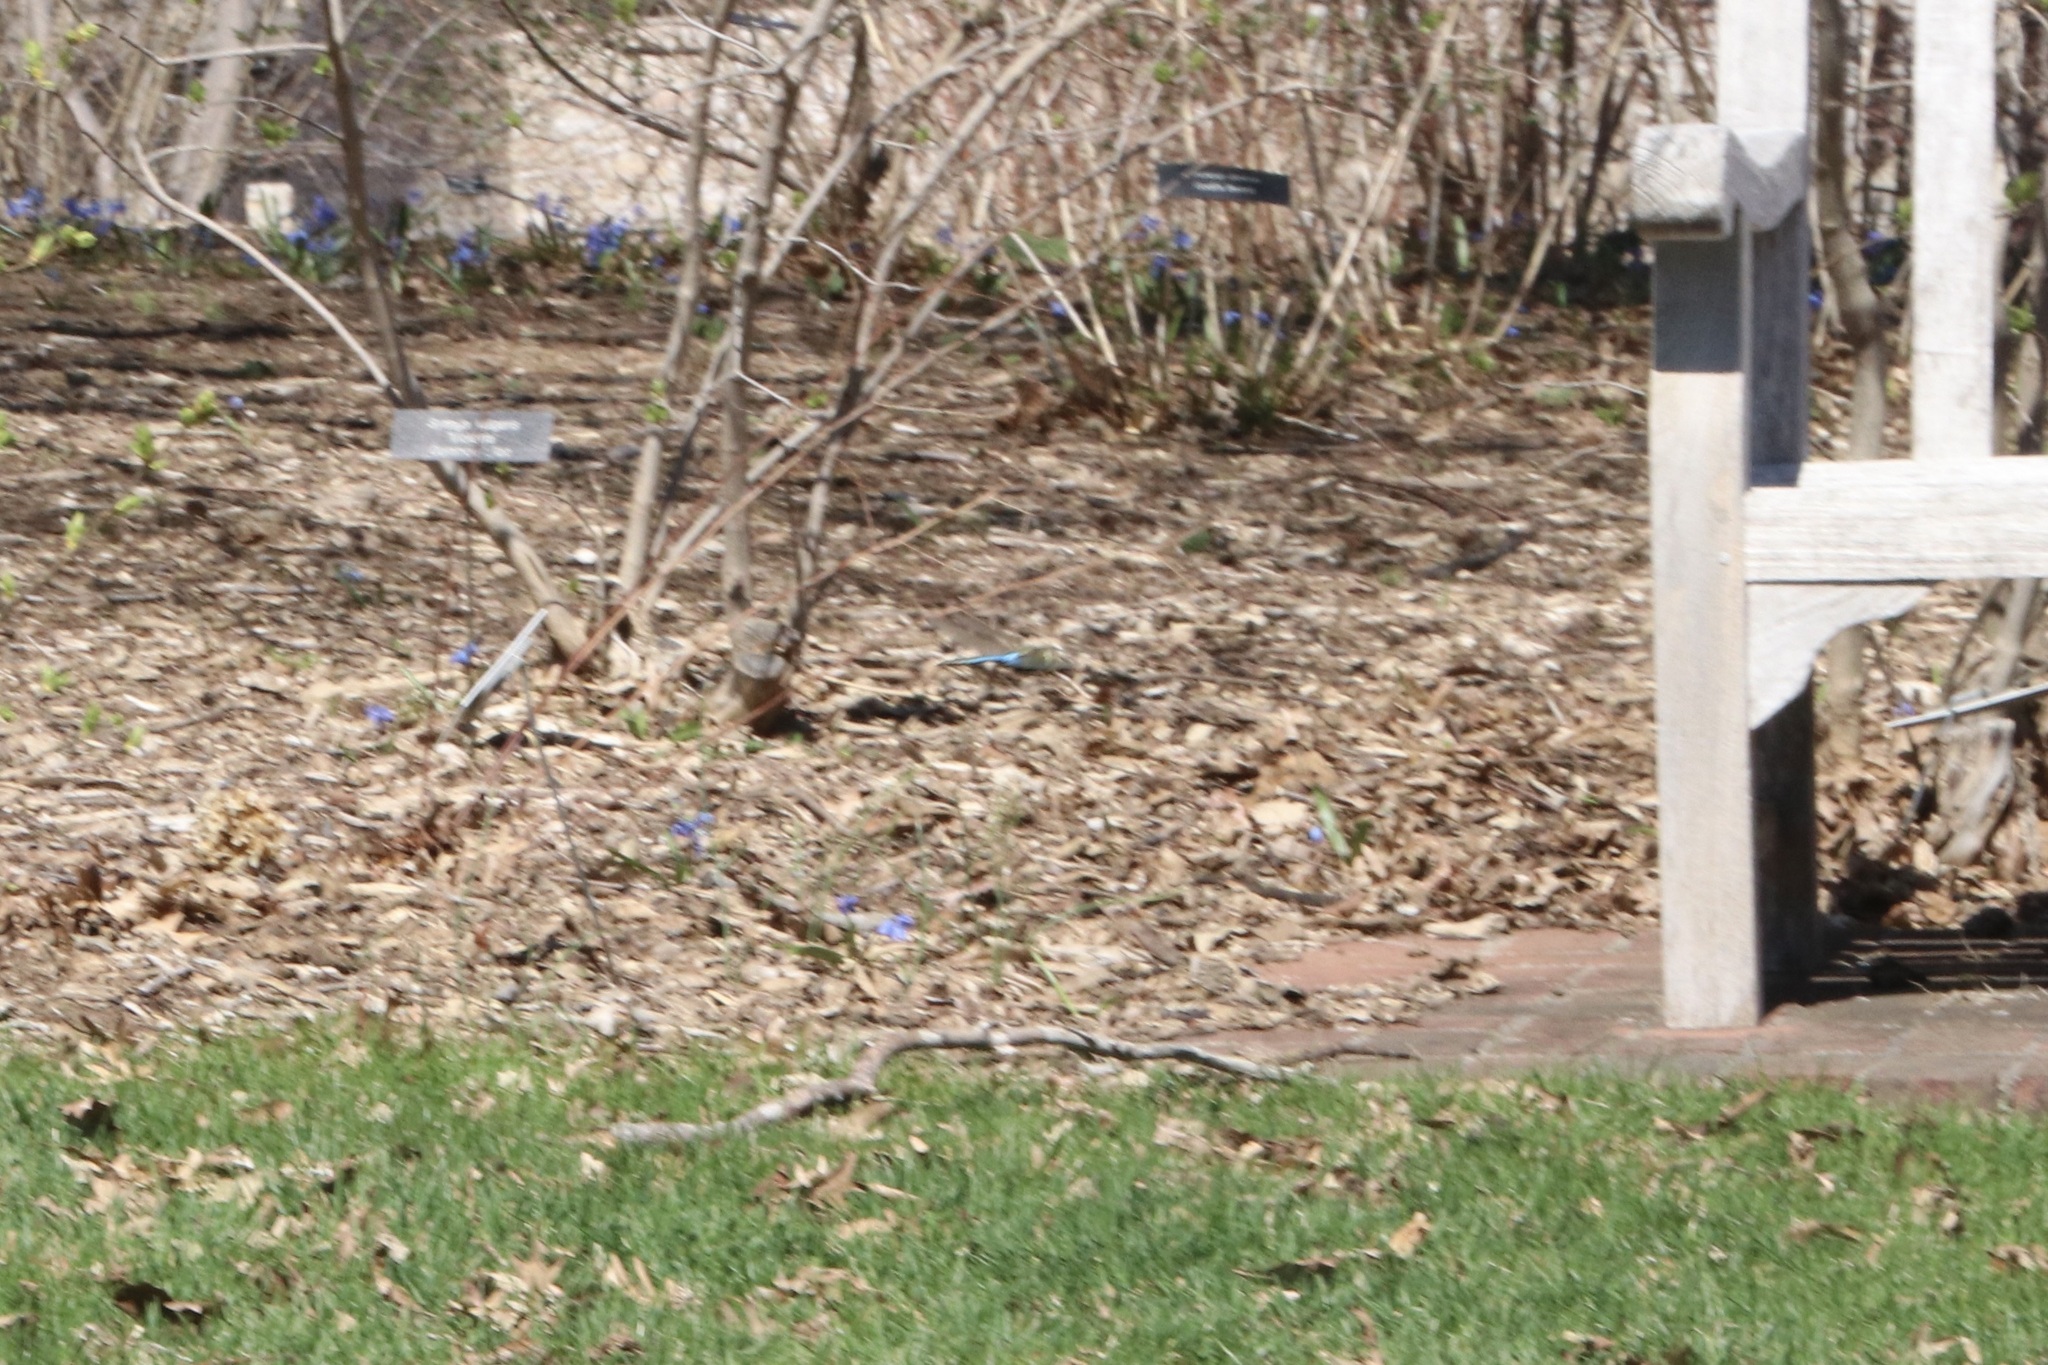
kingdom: Animalia
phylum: Arthropoda
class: Insecta
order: Odonata
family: Aeshnidae
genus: Anax
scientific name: Anax junius
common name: Common green darner
